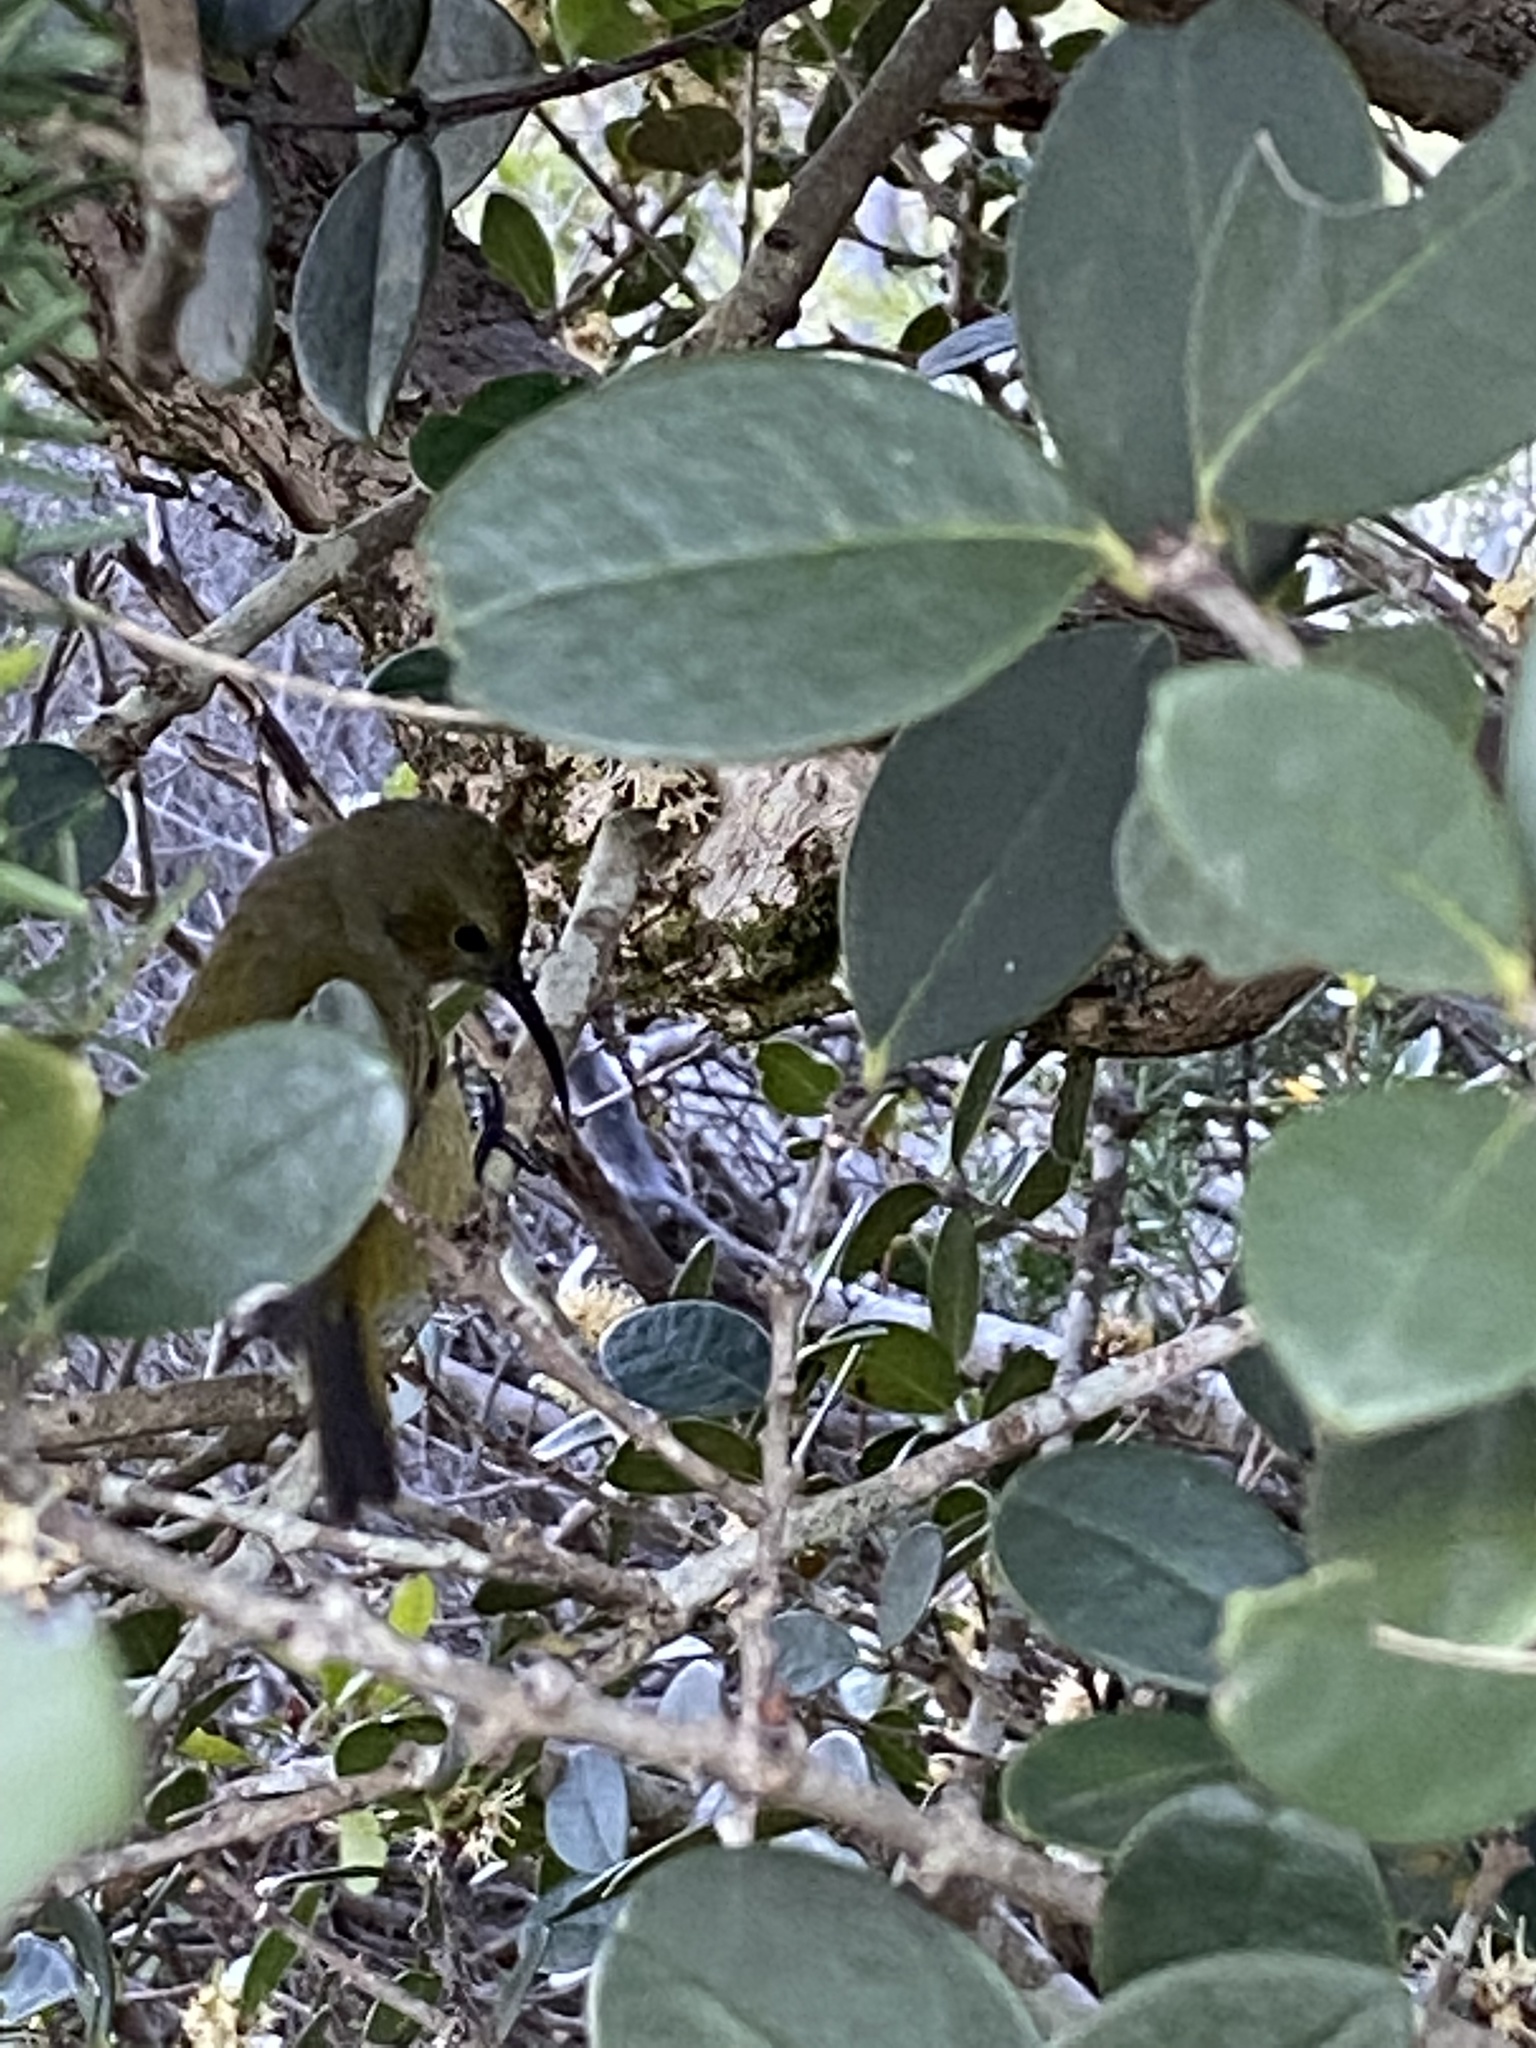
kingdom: Animalia
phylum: Chordata
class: Aves
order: Passeriformes
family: Nectariniidae
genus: Anthobaphes
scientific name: Anthobaphes violacea
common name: Orange-breasted sunbird
